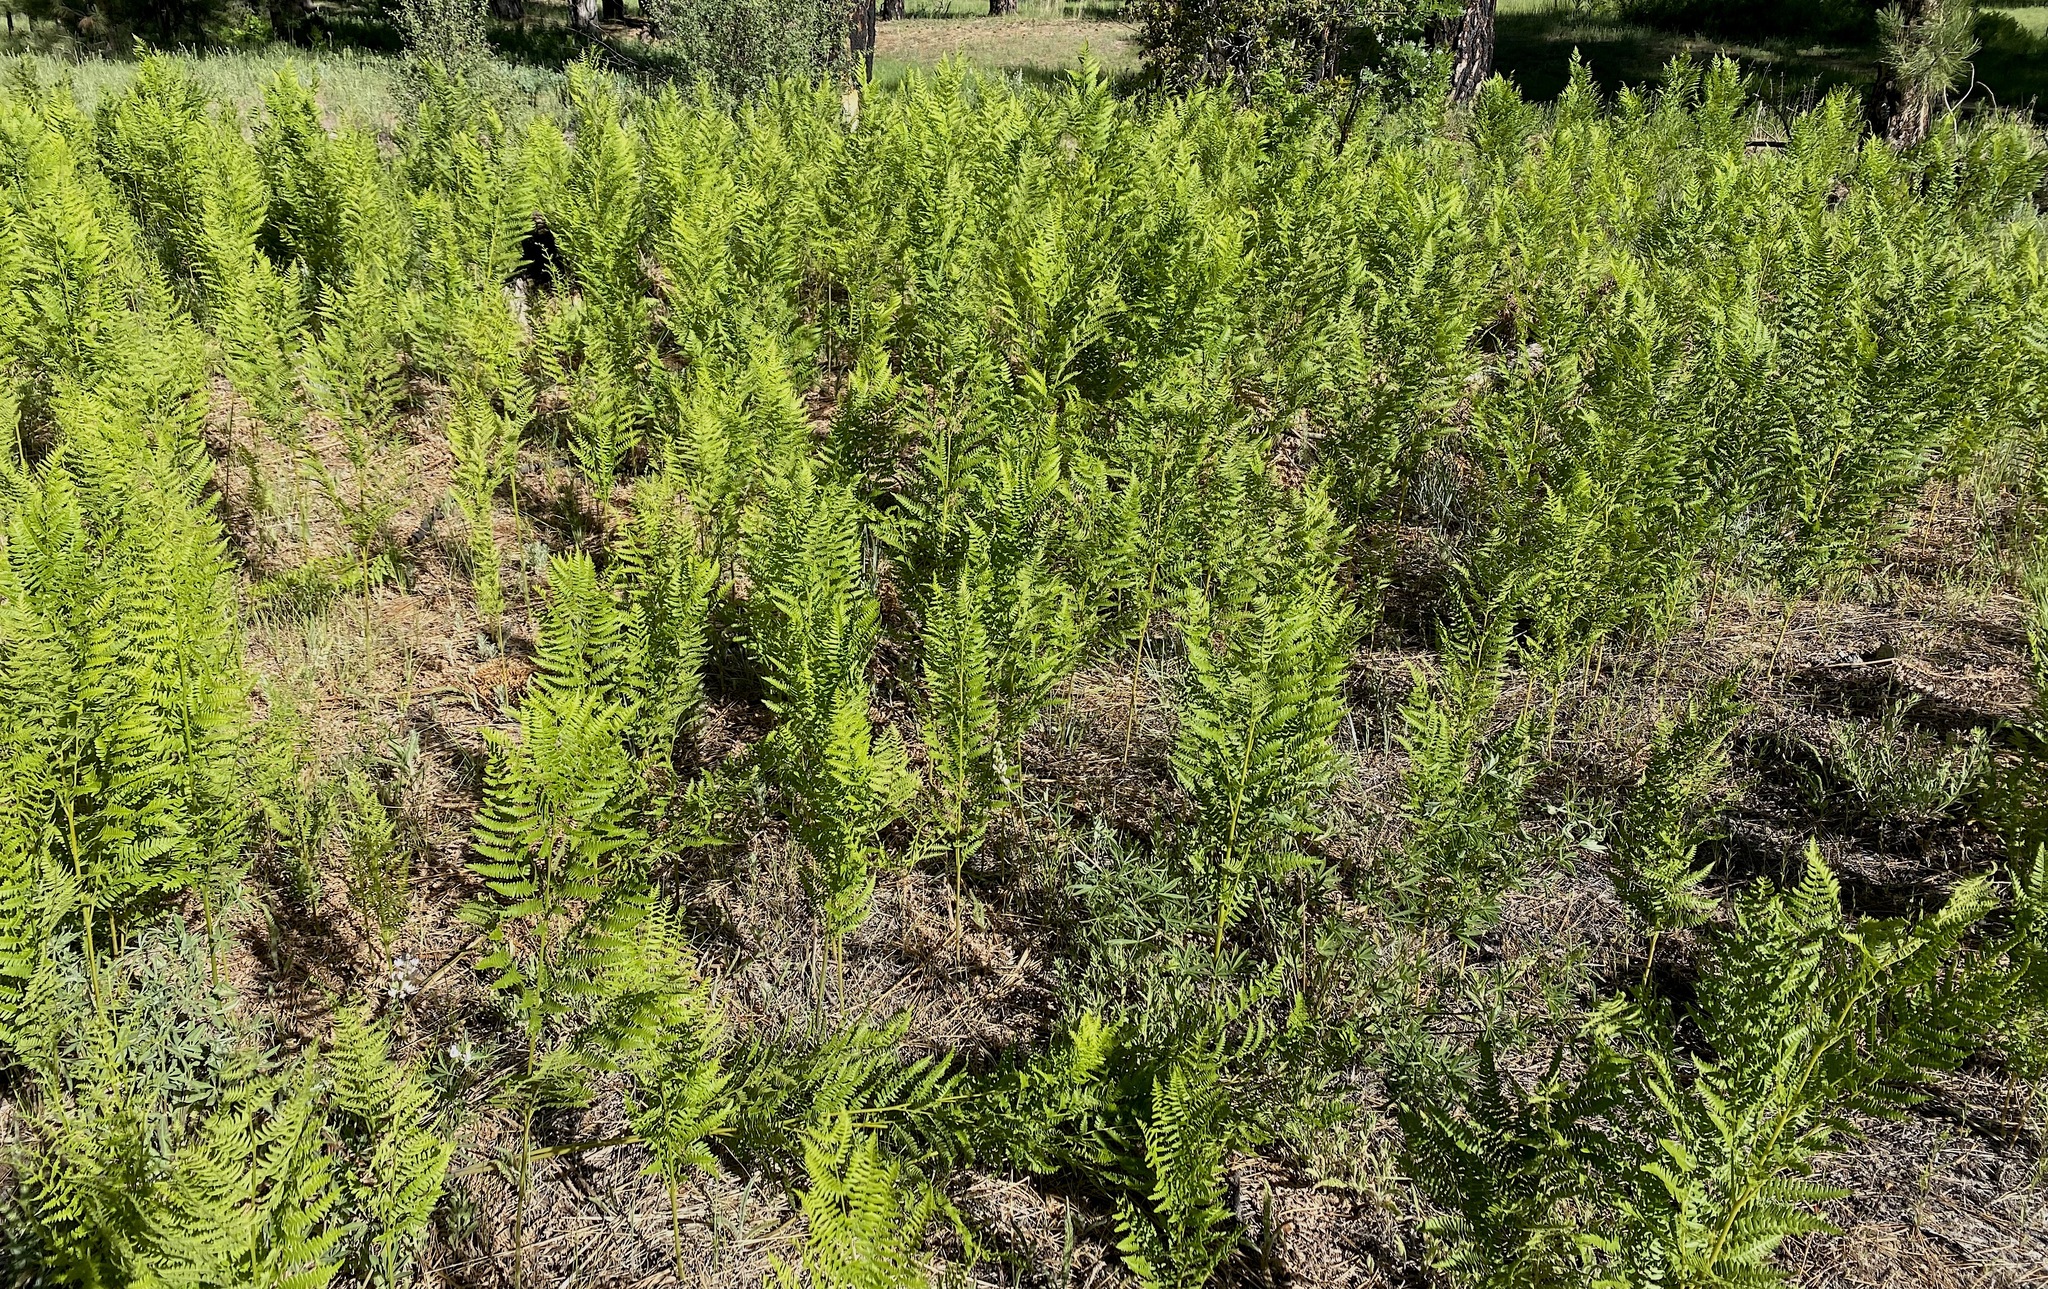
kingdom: Plantae
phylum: Tracheophyta
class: Polypodiopsida
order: Polypodiales
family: Dennstaedtiaceae
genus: Pteridium
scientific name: Pteridium aquilinum
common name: Bracken
